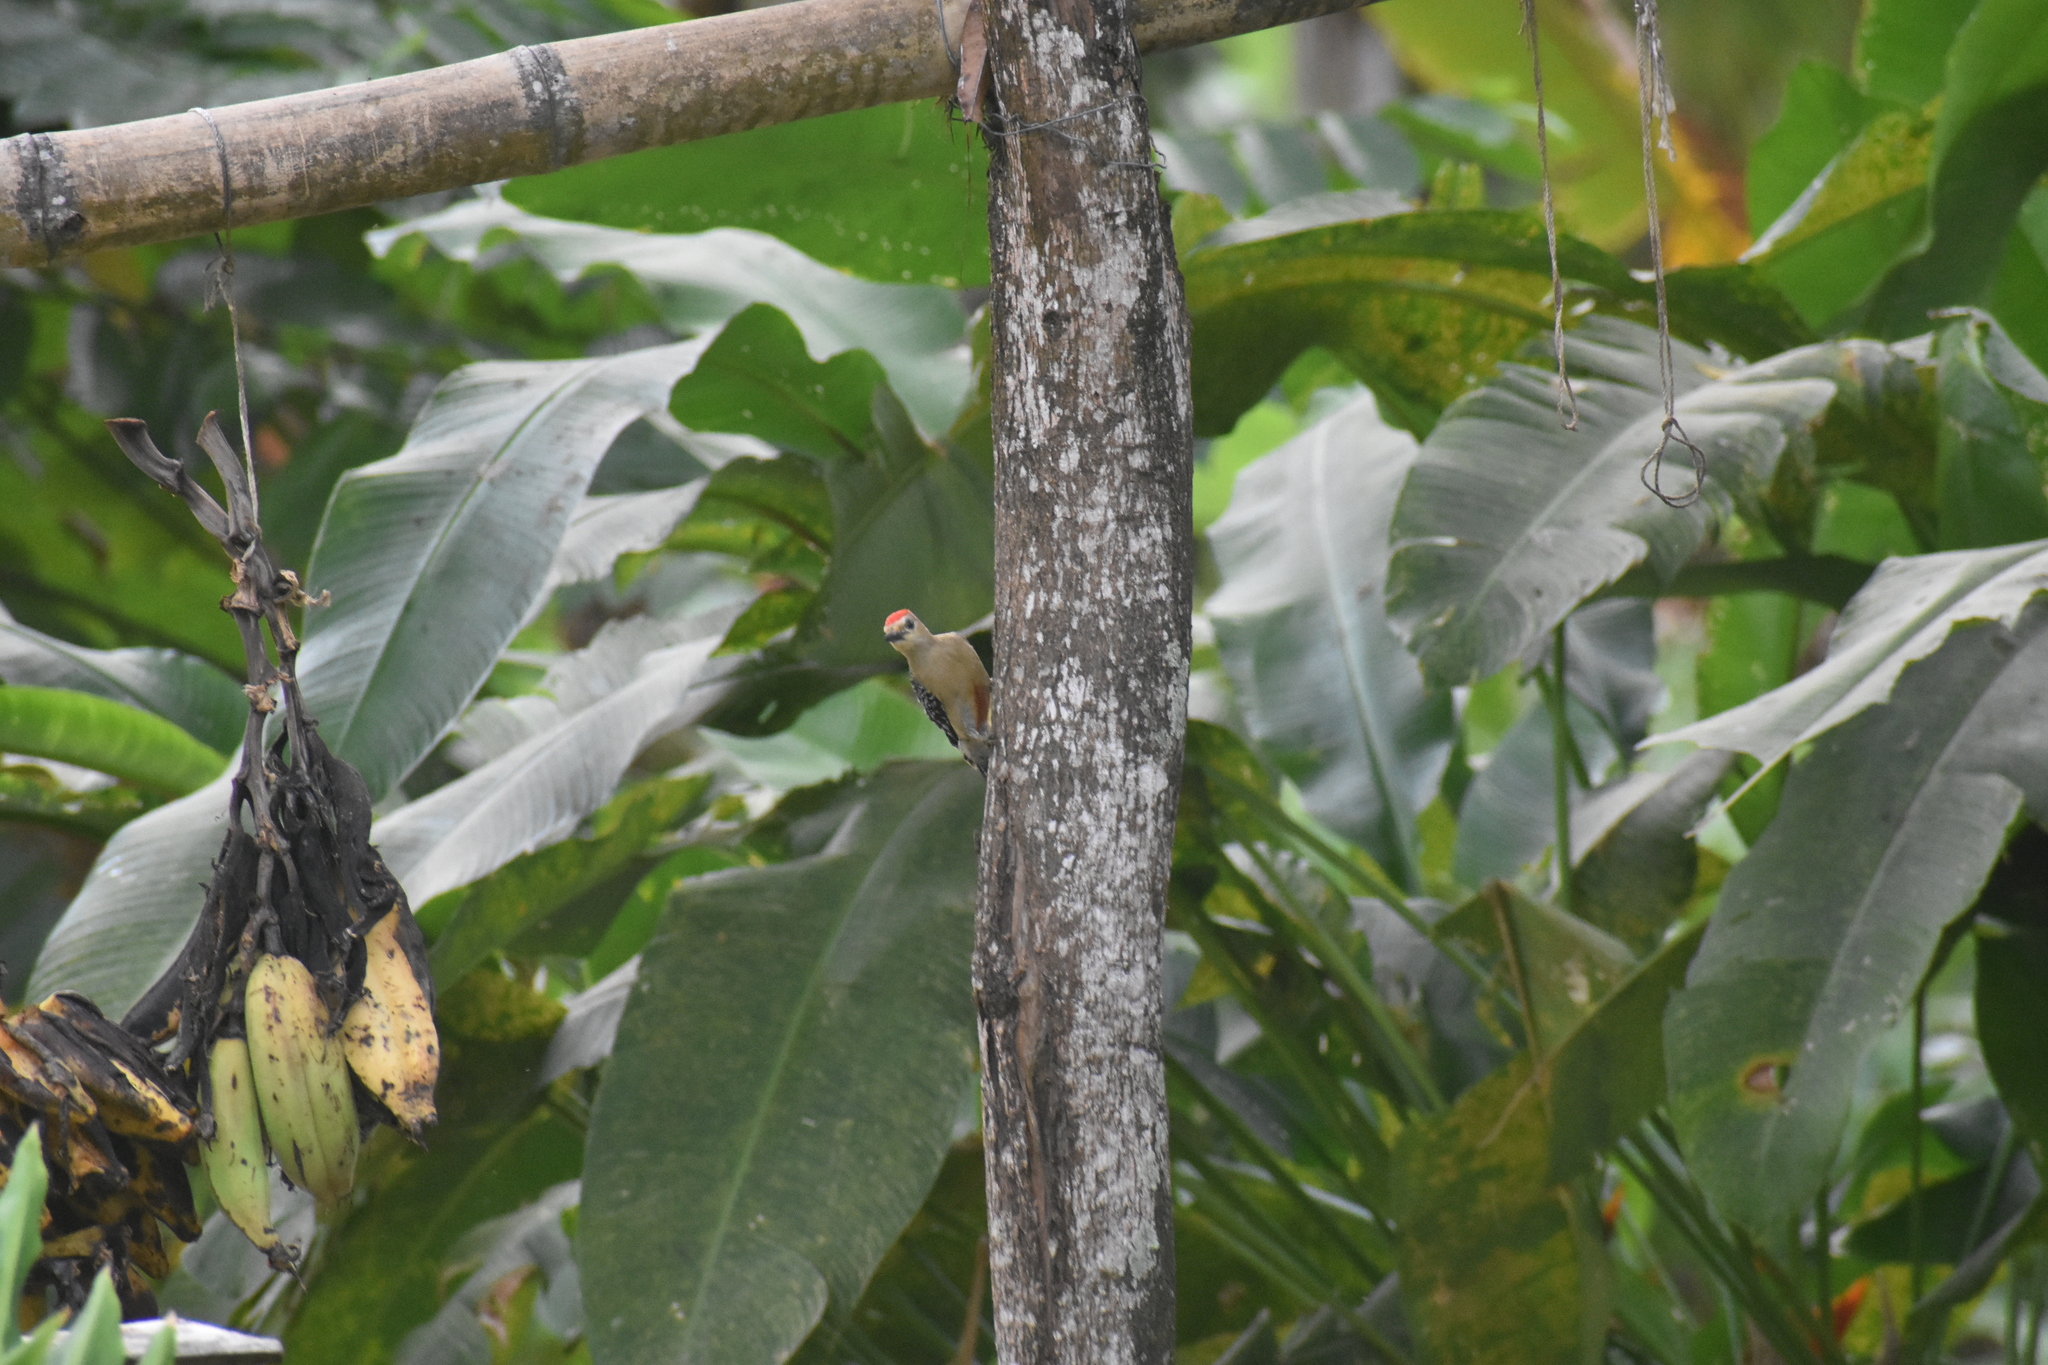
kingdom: Animalia
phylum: Chordata
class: Aves
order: Piciformes
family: Picidae
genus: Melanerpes
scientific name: Melanerpes rubricapillus
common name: Red-crowned woodpecker
